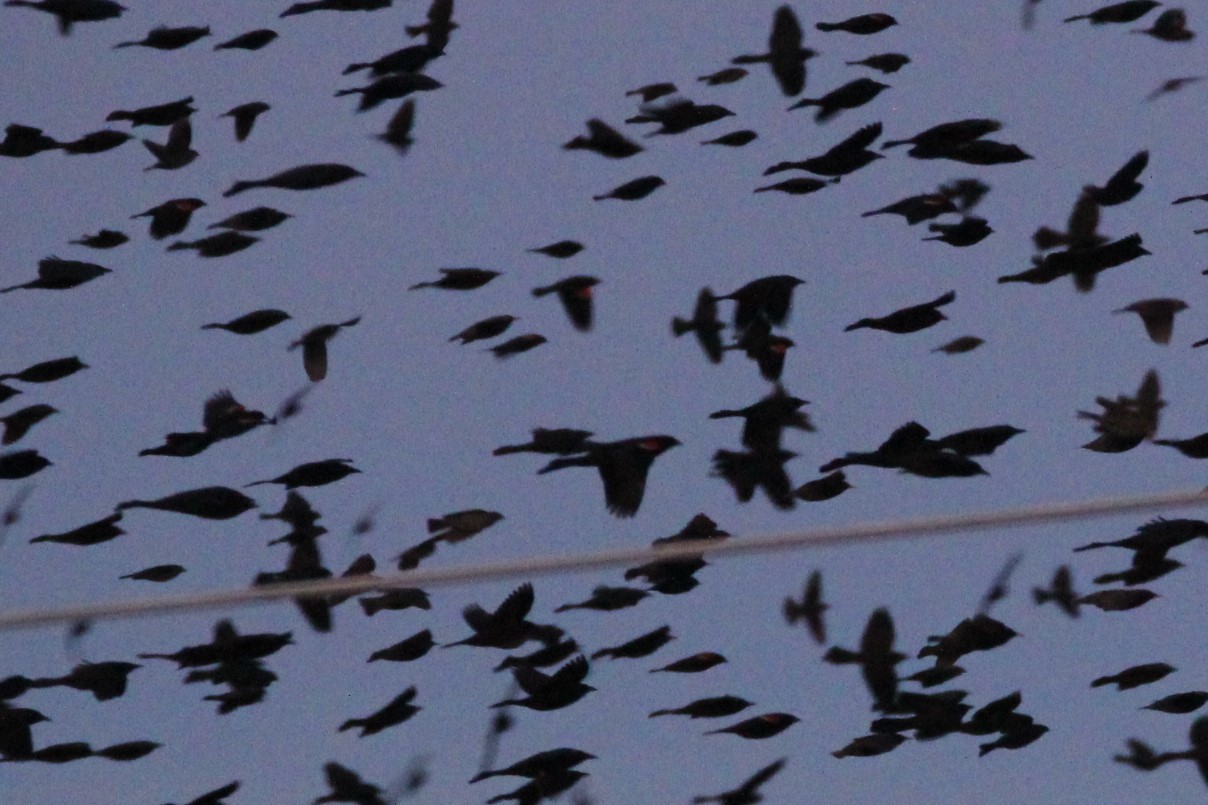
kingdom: Animalia
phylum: Chordata
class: Aves
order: Passeriformes
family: Icteridae
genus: Agelaius
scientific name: Agelaius phoeniceus
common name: Red-winged blackbird
